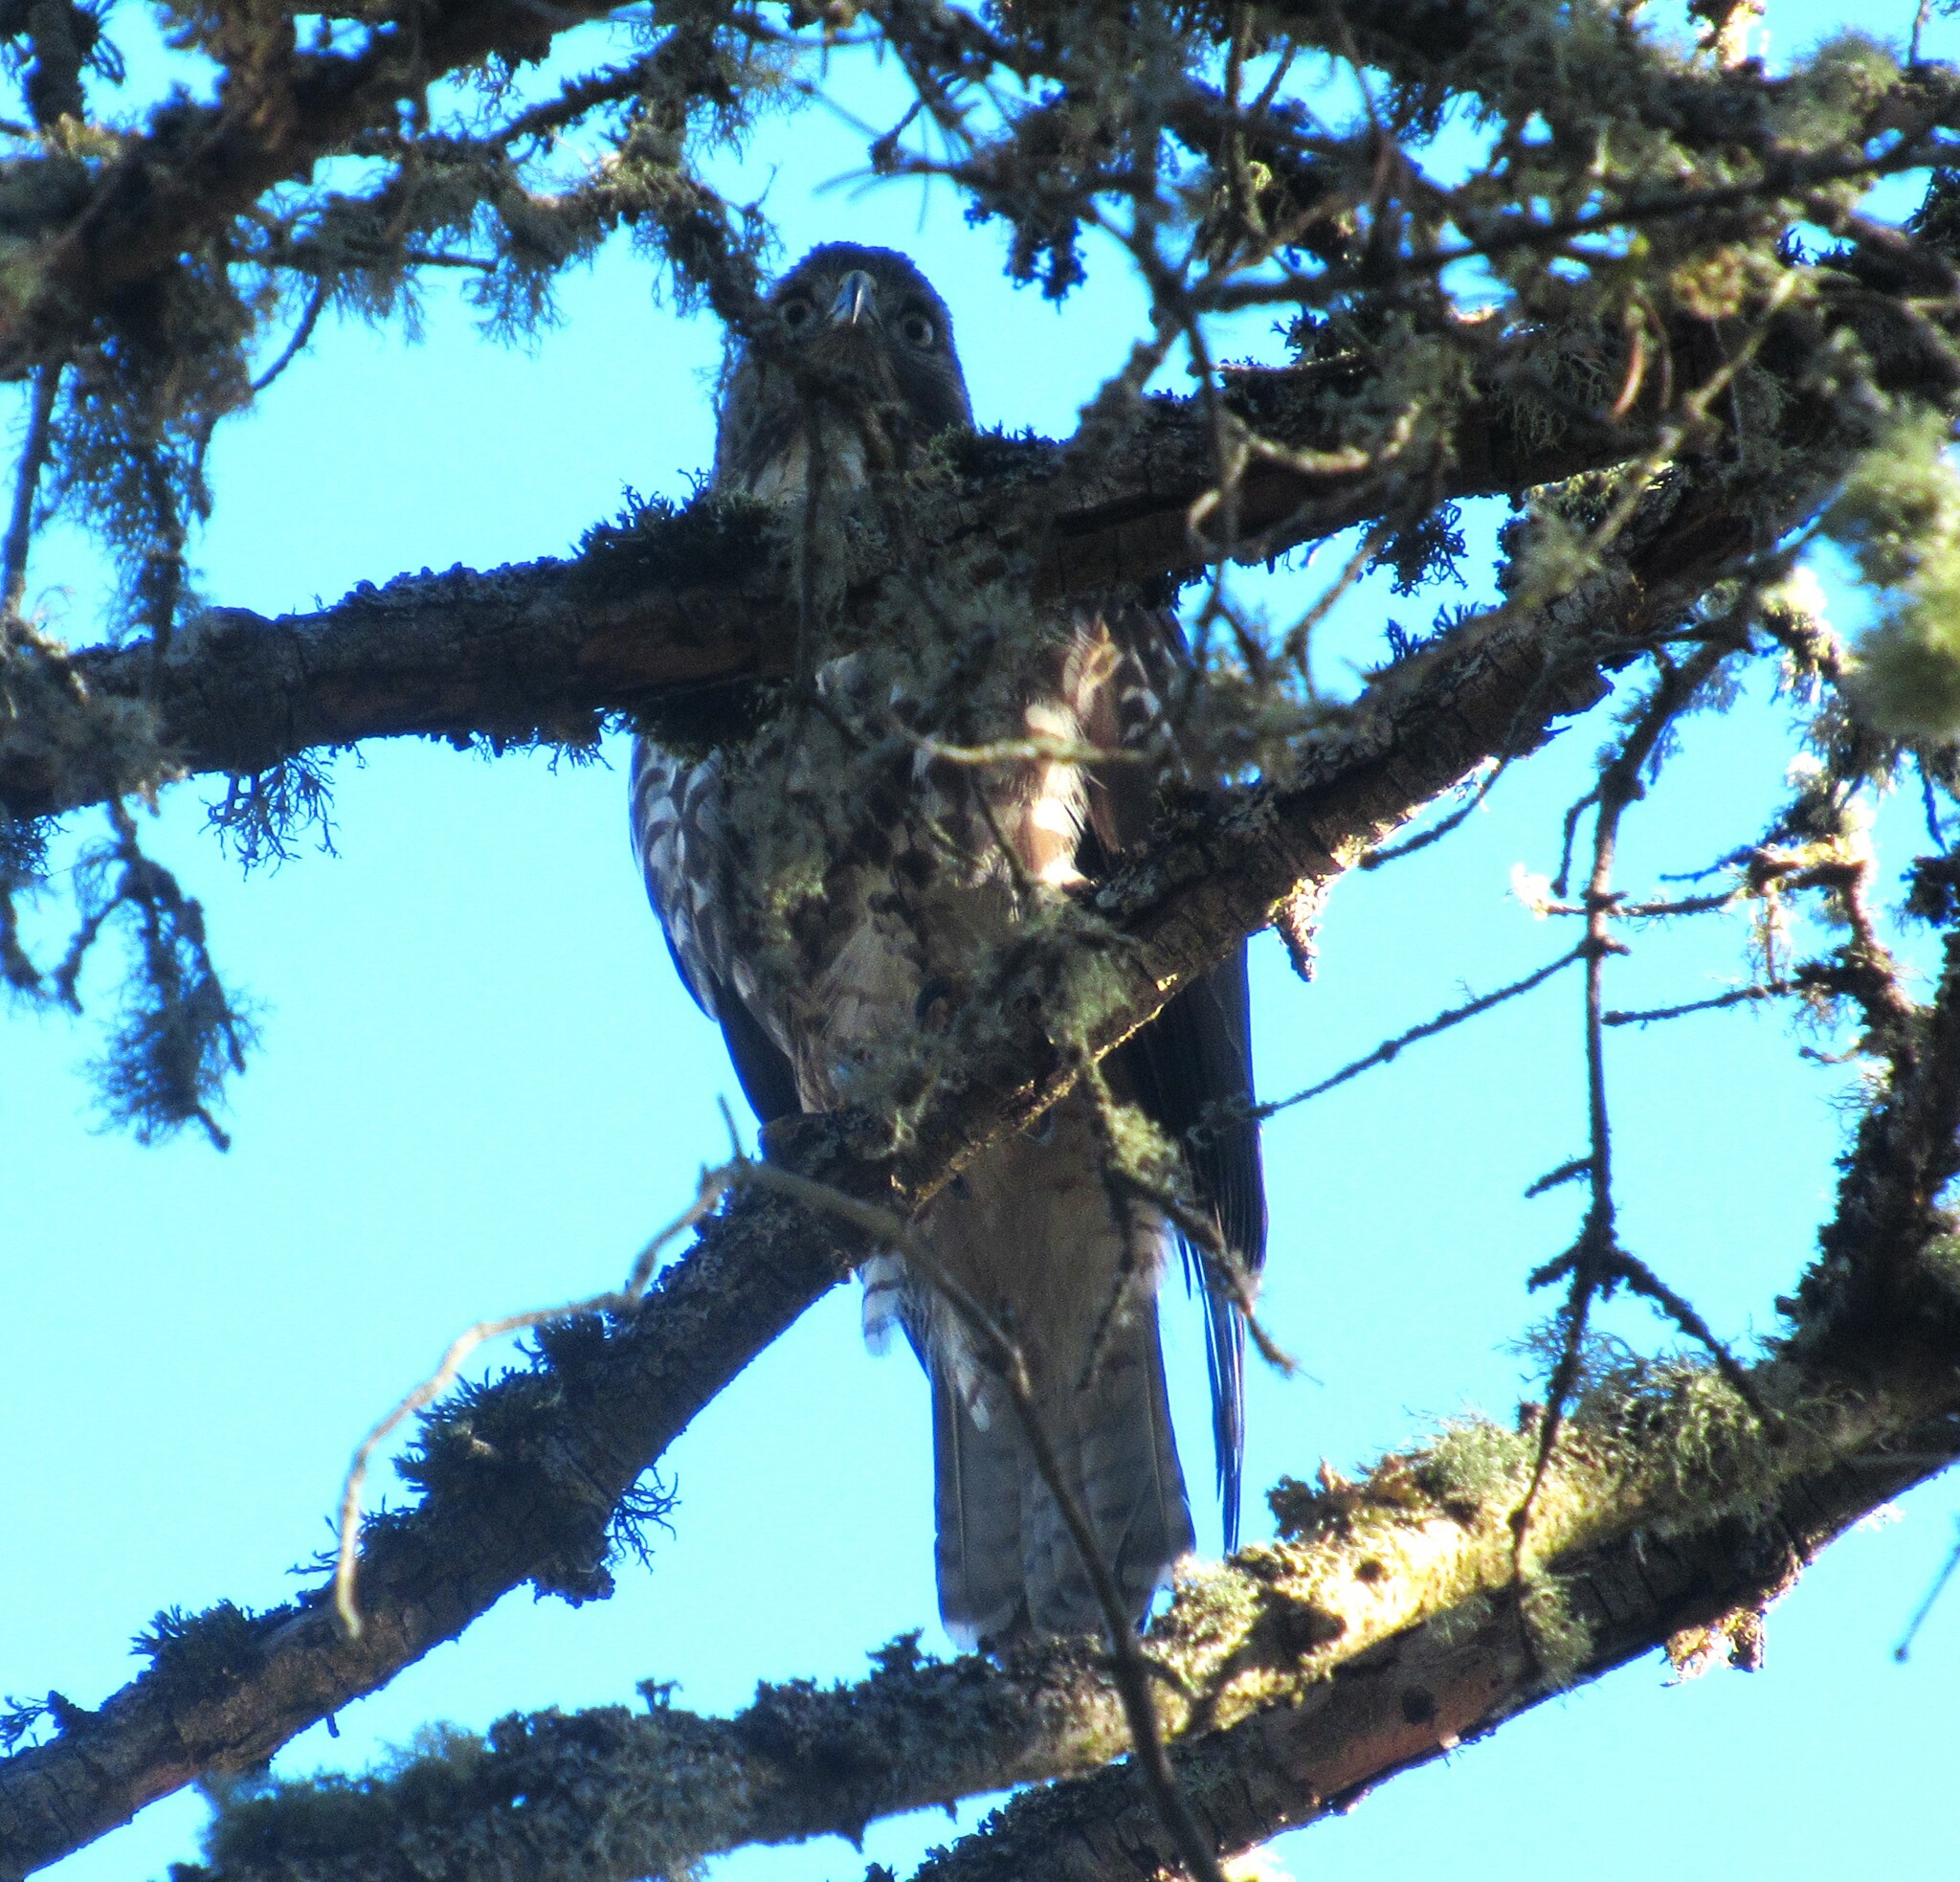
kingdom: Animalia
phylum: Chordata
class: Aves
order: Accipitriformes
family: Accipitridae
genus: Buteo
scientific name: Buteo jamaicensis
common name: Red-tailed hawk
